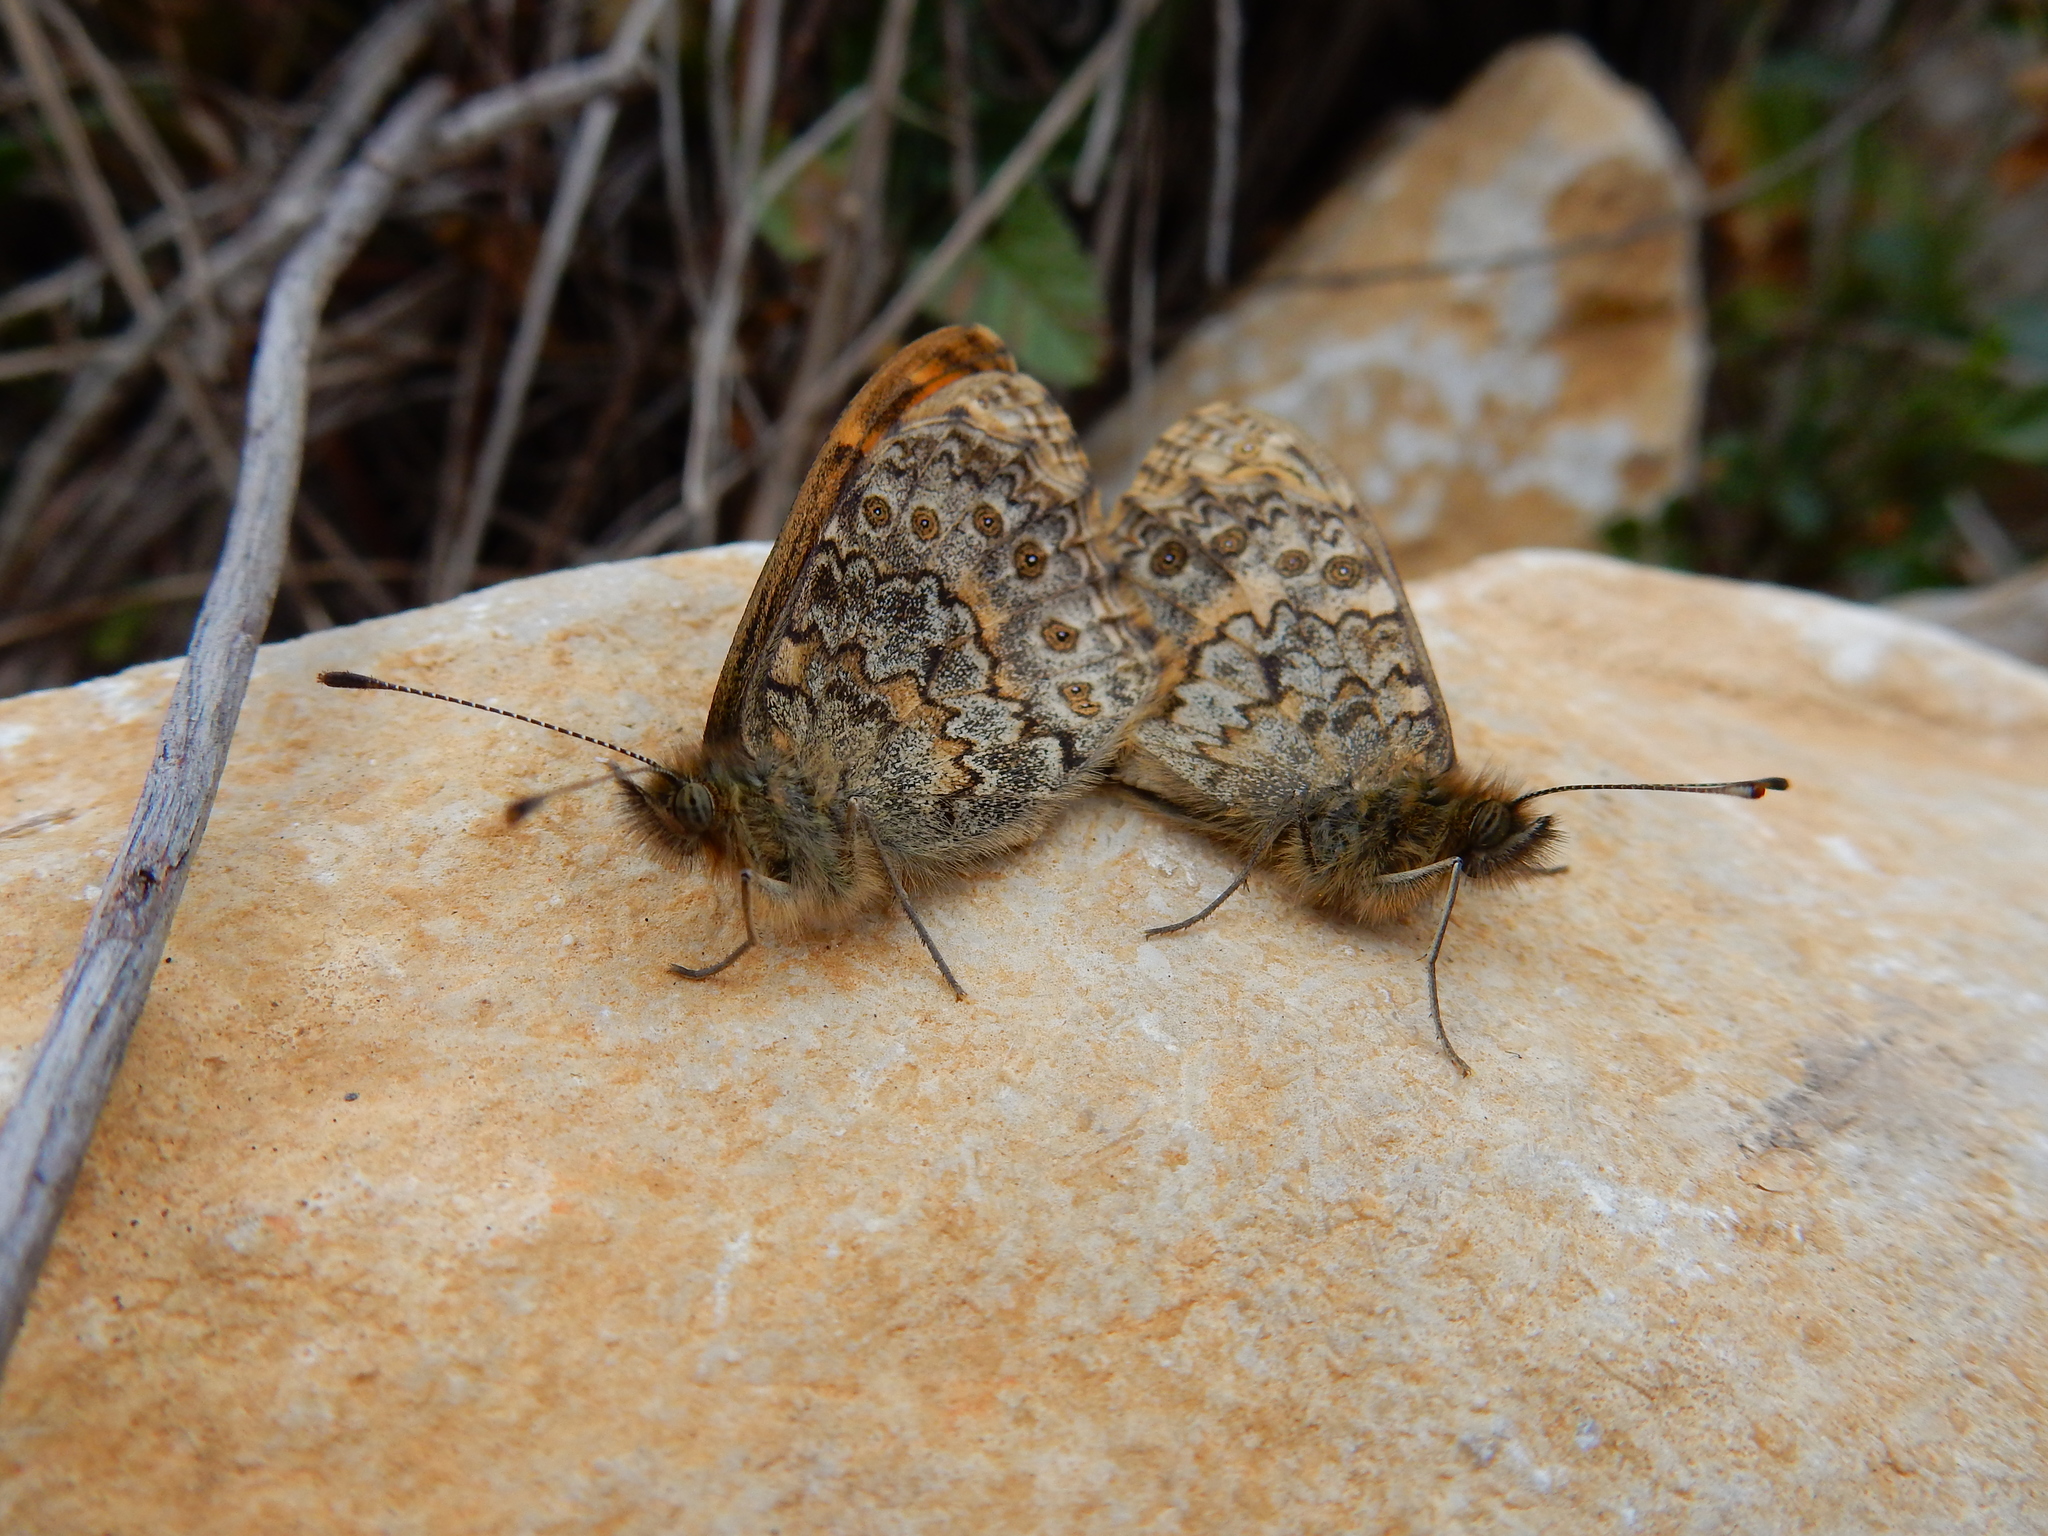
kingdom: Animalia
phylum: Arthropoda
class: Insecta
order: Lepidoptera
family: Nymphalidae
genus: Pararge
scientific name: Pararge Lasiommata megera
